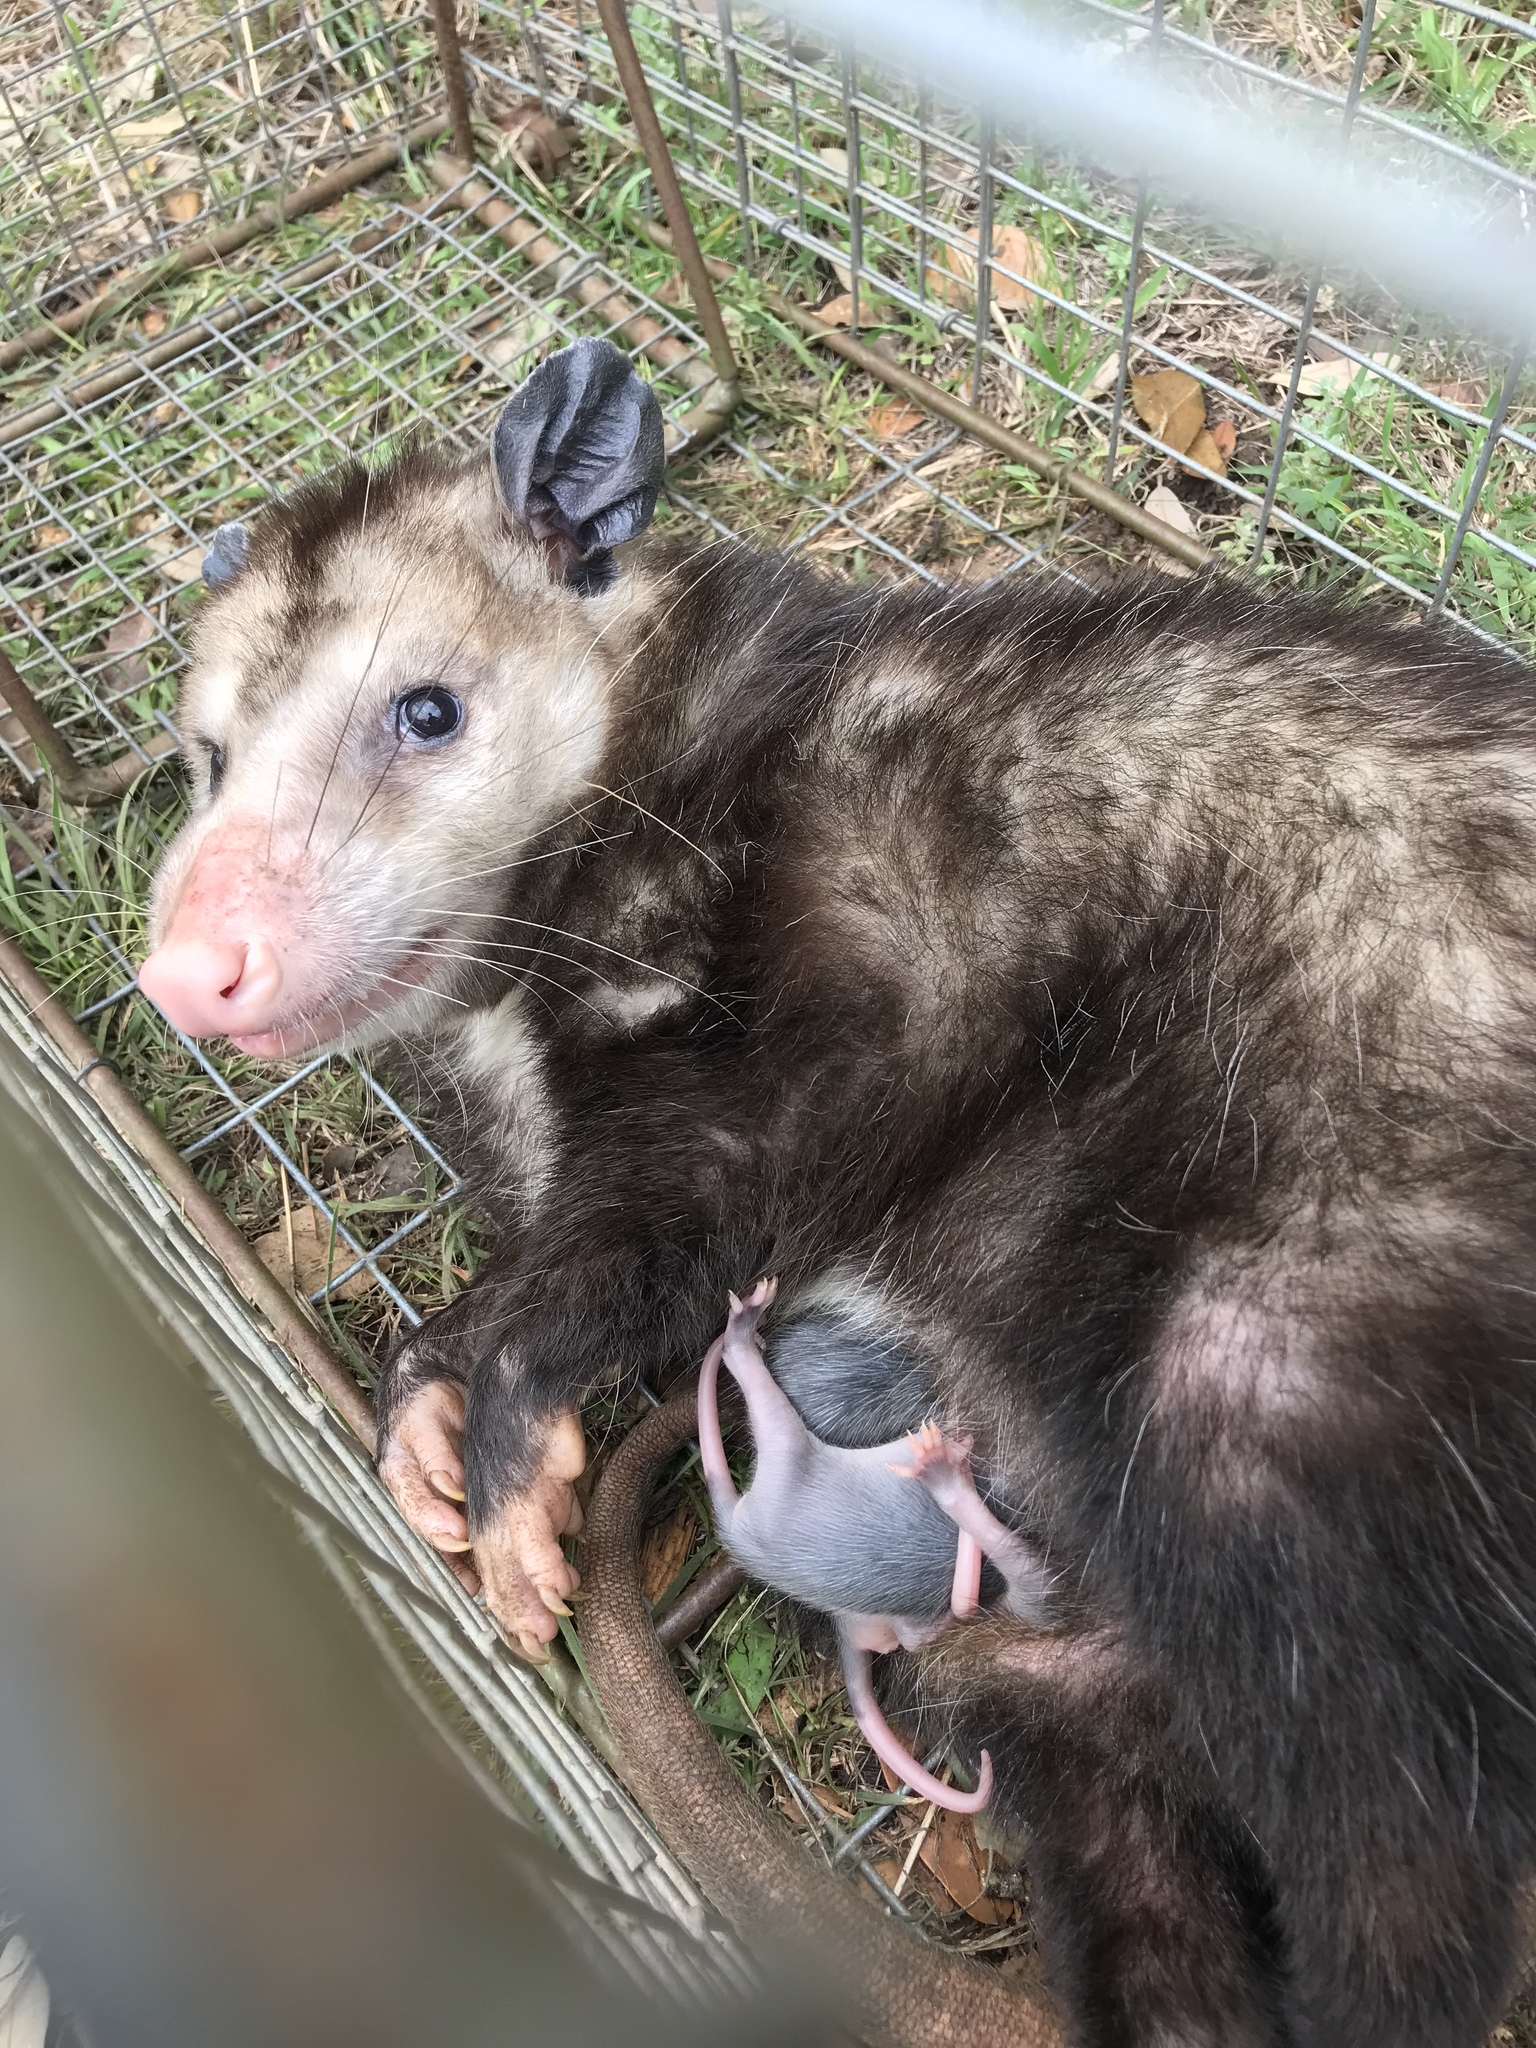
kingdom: Animalia
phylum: Chordata
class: Mammalia
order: Didelphimorphia
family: Didelphidae
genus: Didelphis
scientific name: Didelphis virginiana
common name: Virginia opossum
